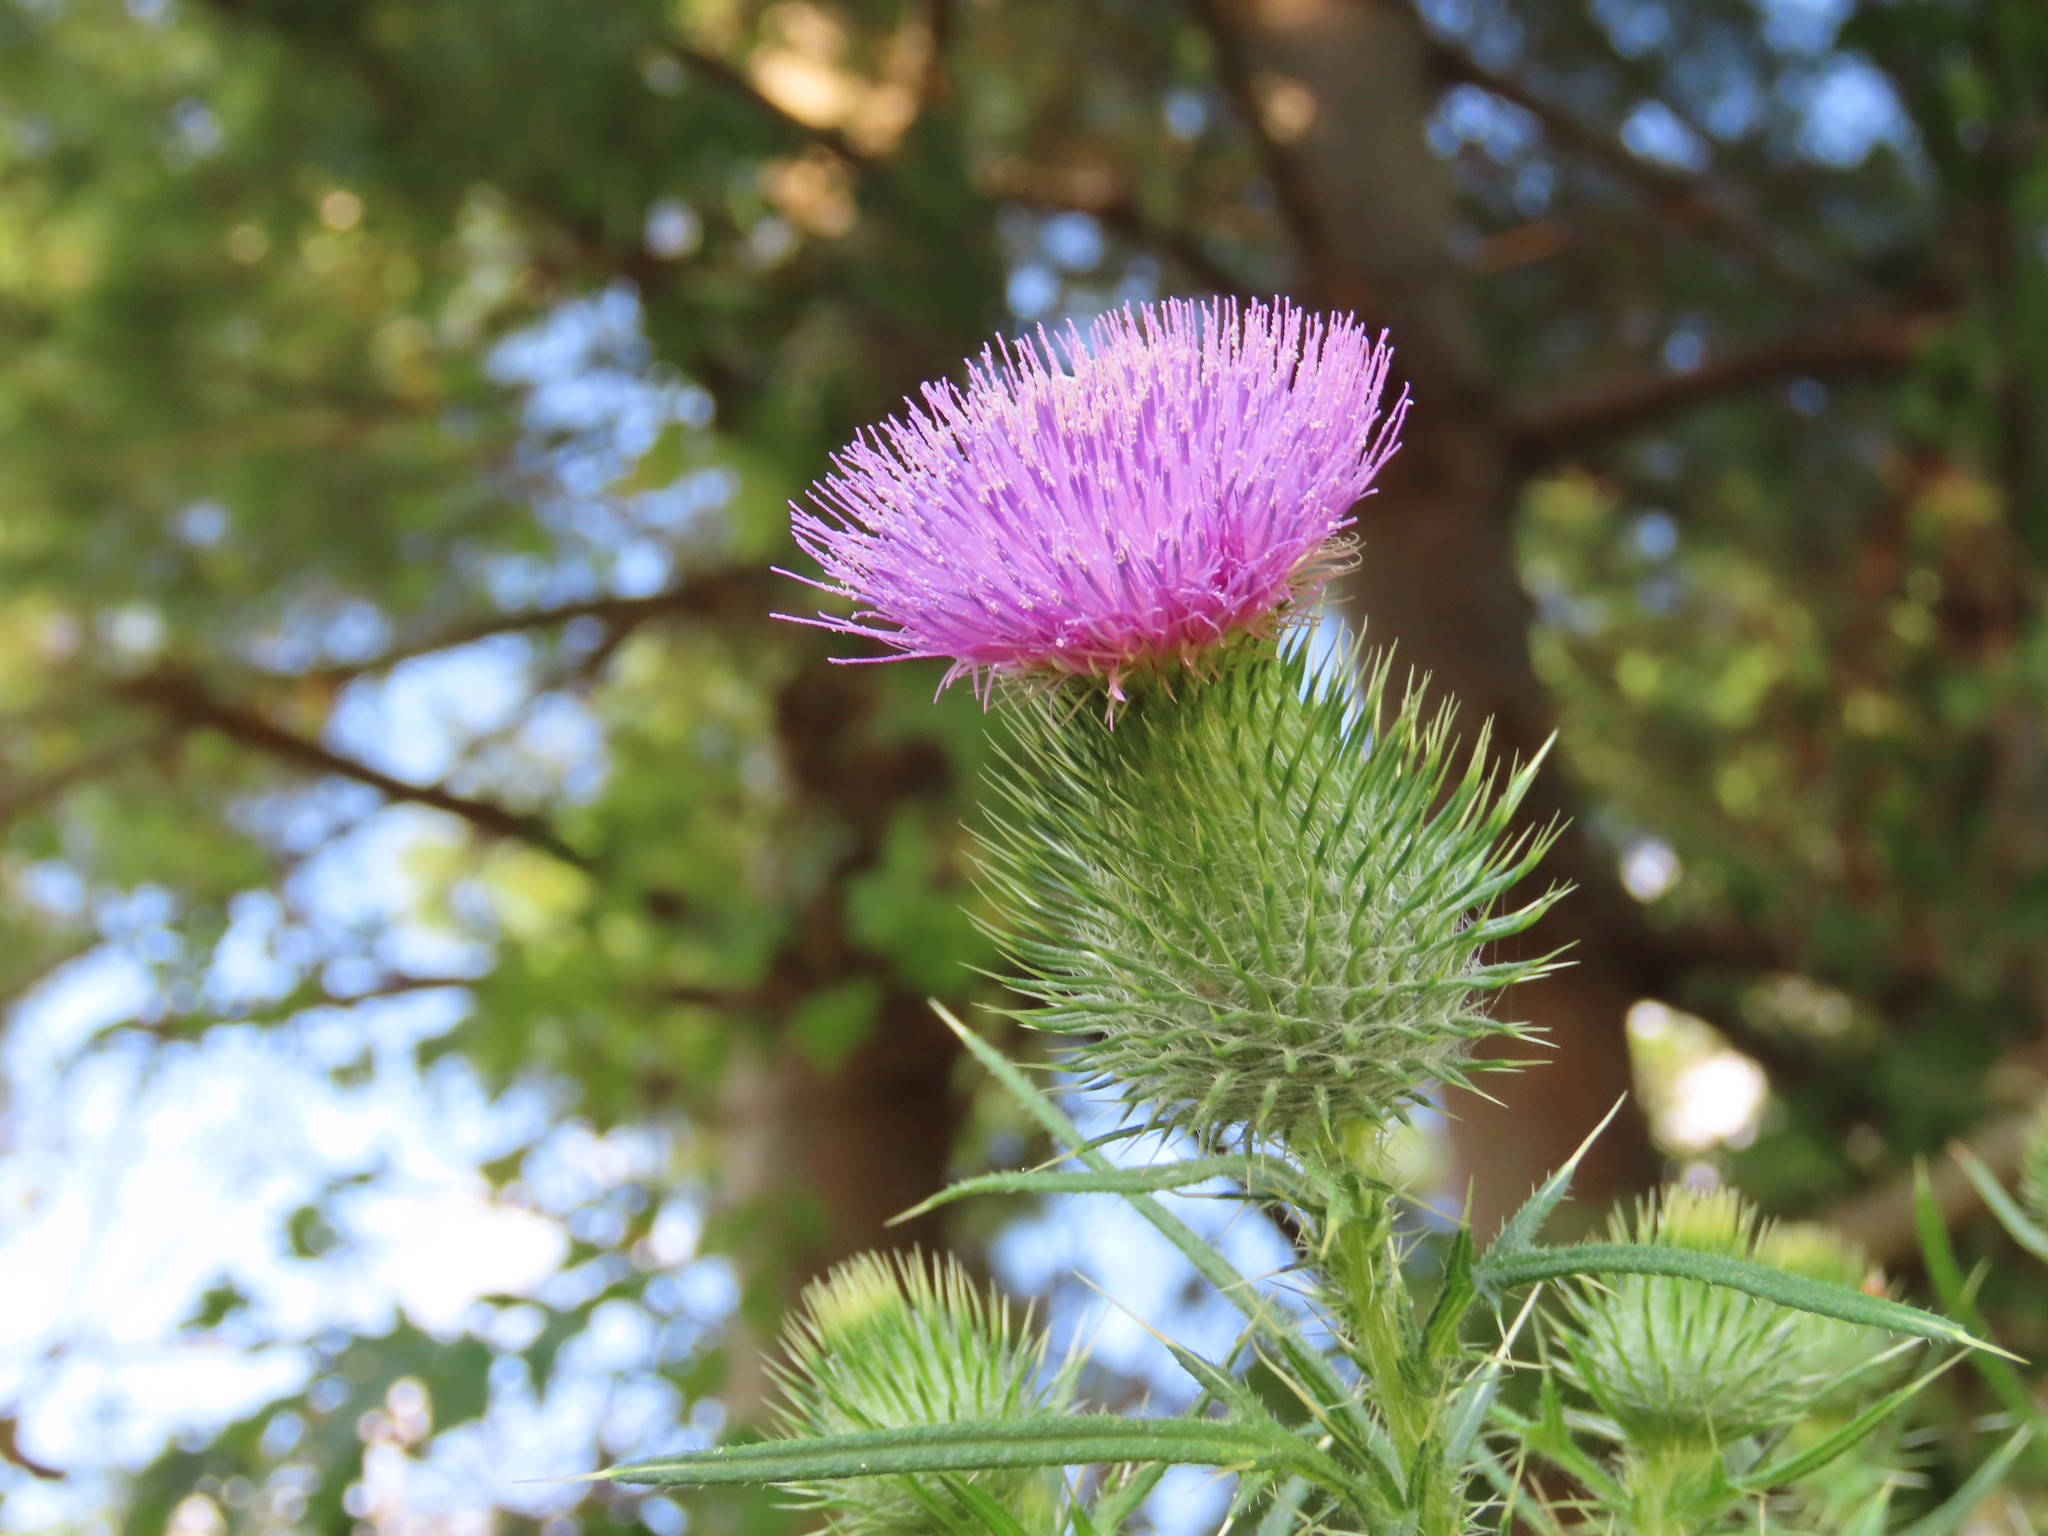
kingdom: Plantae
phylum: Tracheophyta
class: Magnoliopsida
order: Asterales
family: Asteraceae
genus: Cirsium
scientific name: Cirsium vulgare
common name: Bull thistle
